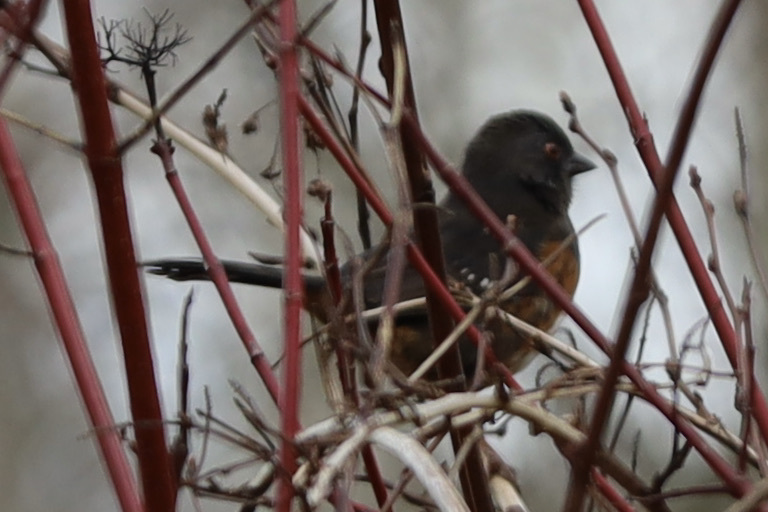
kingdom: Animalia
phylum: Chordata
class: Aves
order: Passeriformes
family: Passerellidae
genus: Pipilo
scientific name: Pipilo maculatus
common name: Spotted towhee
